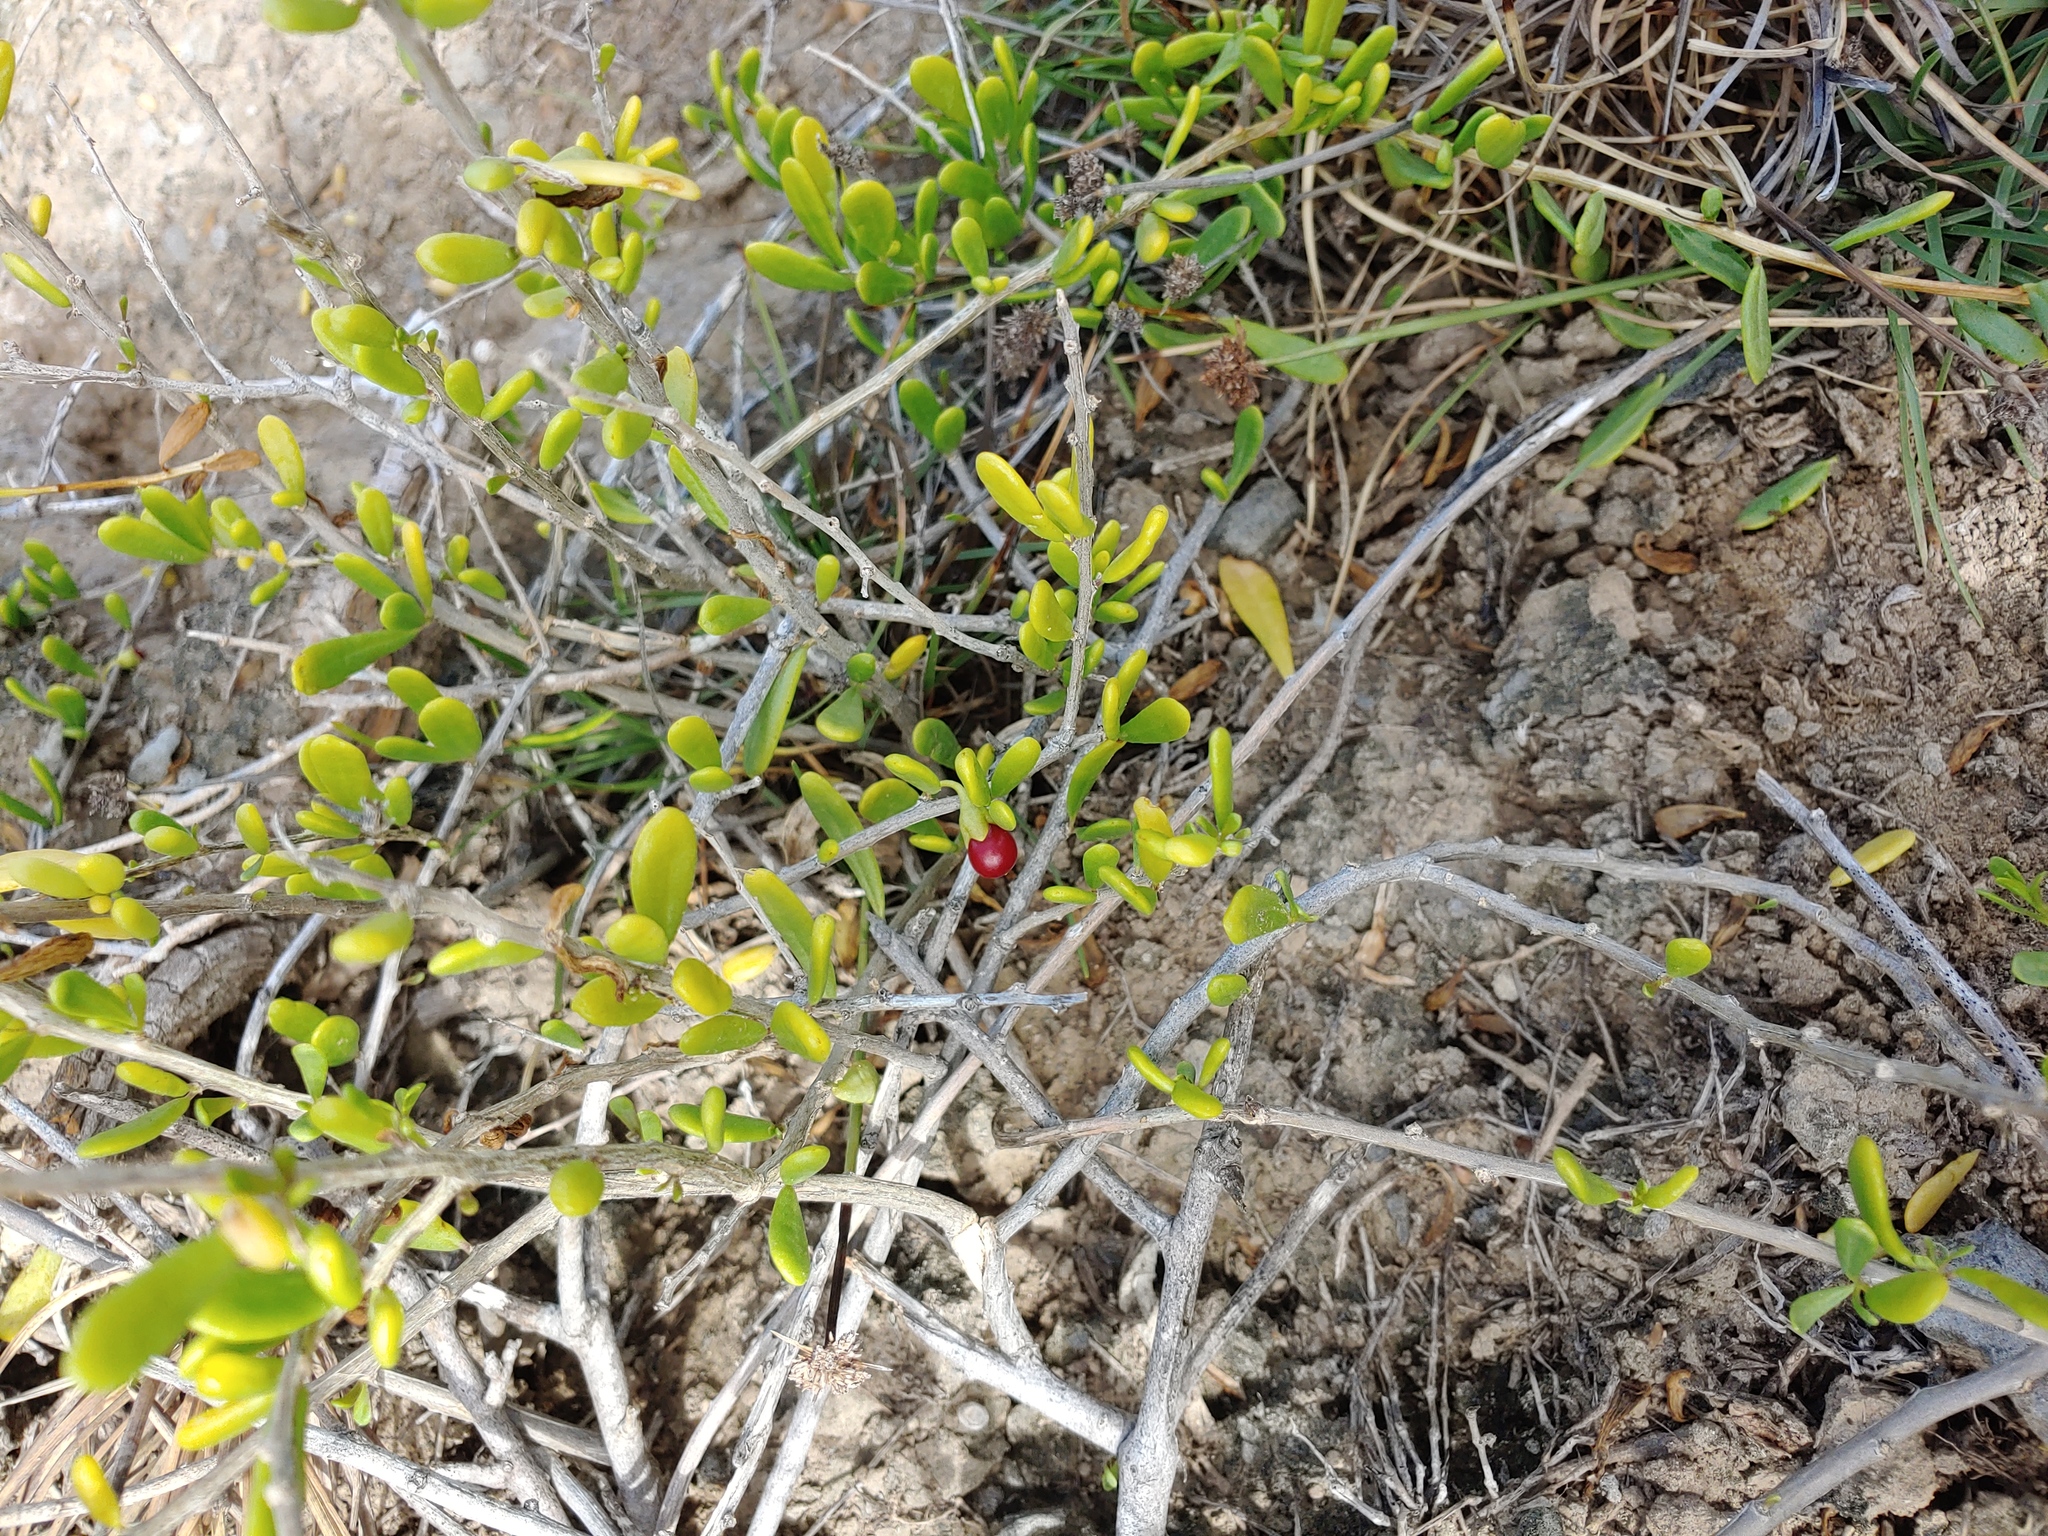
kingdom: Plantae
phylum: Tracheophyta
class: Magnoliopsida
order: Solanales
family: Solanaceae
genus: Lycium
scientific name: Lycium sandwicense
